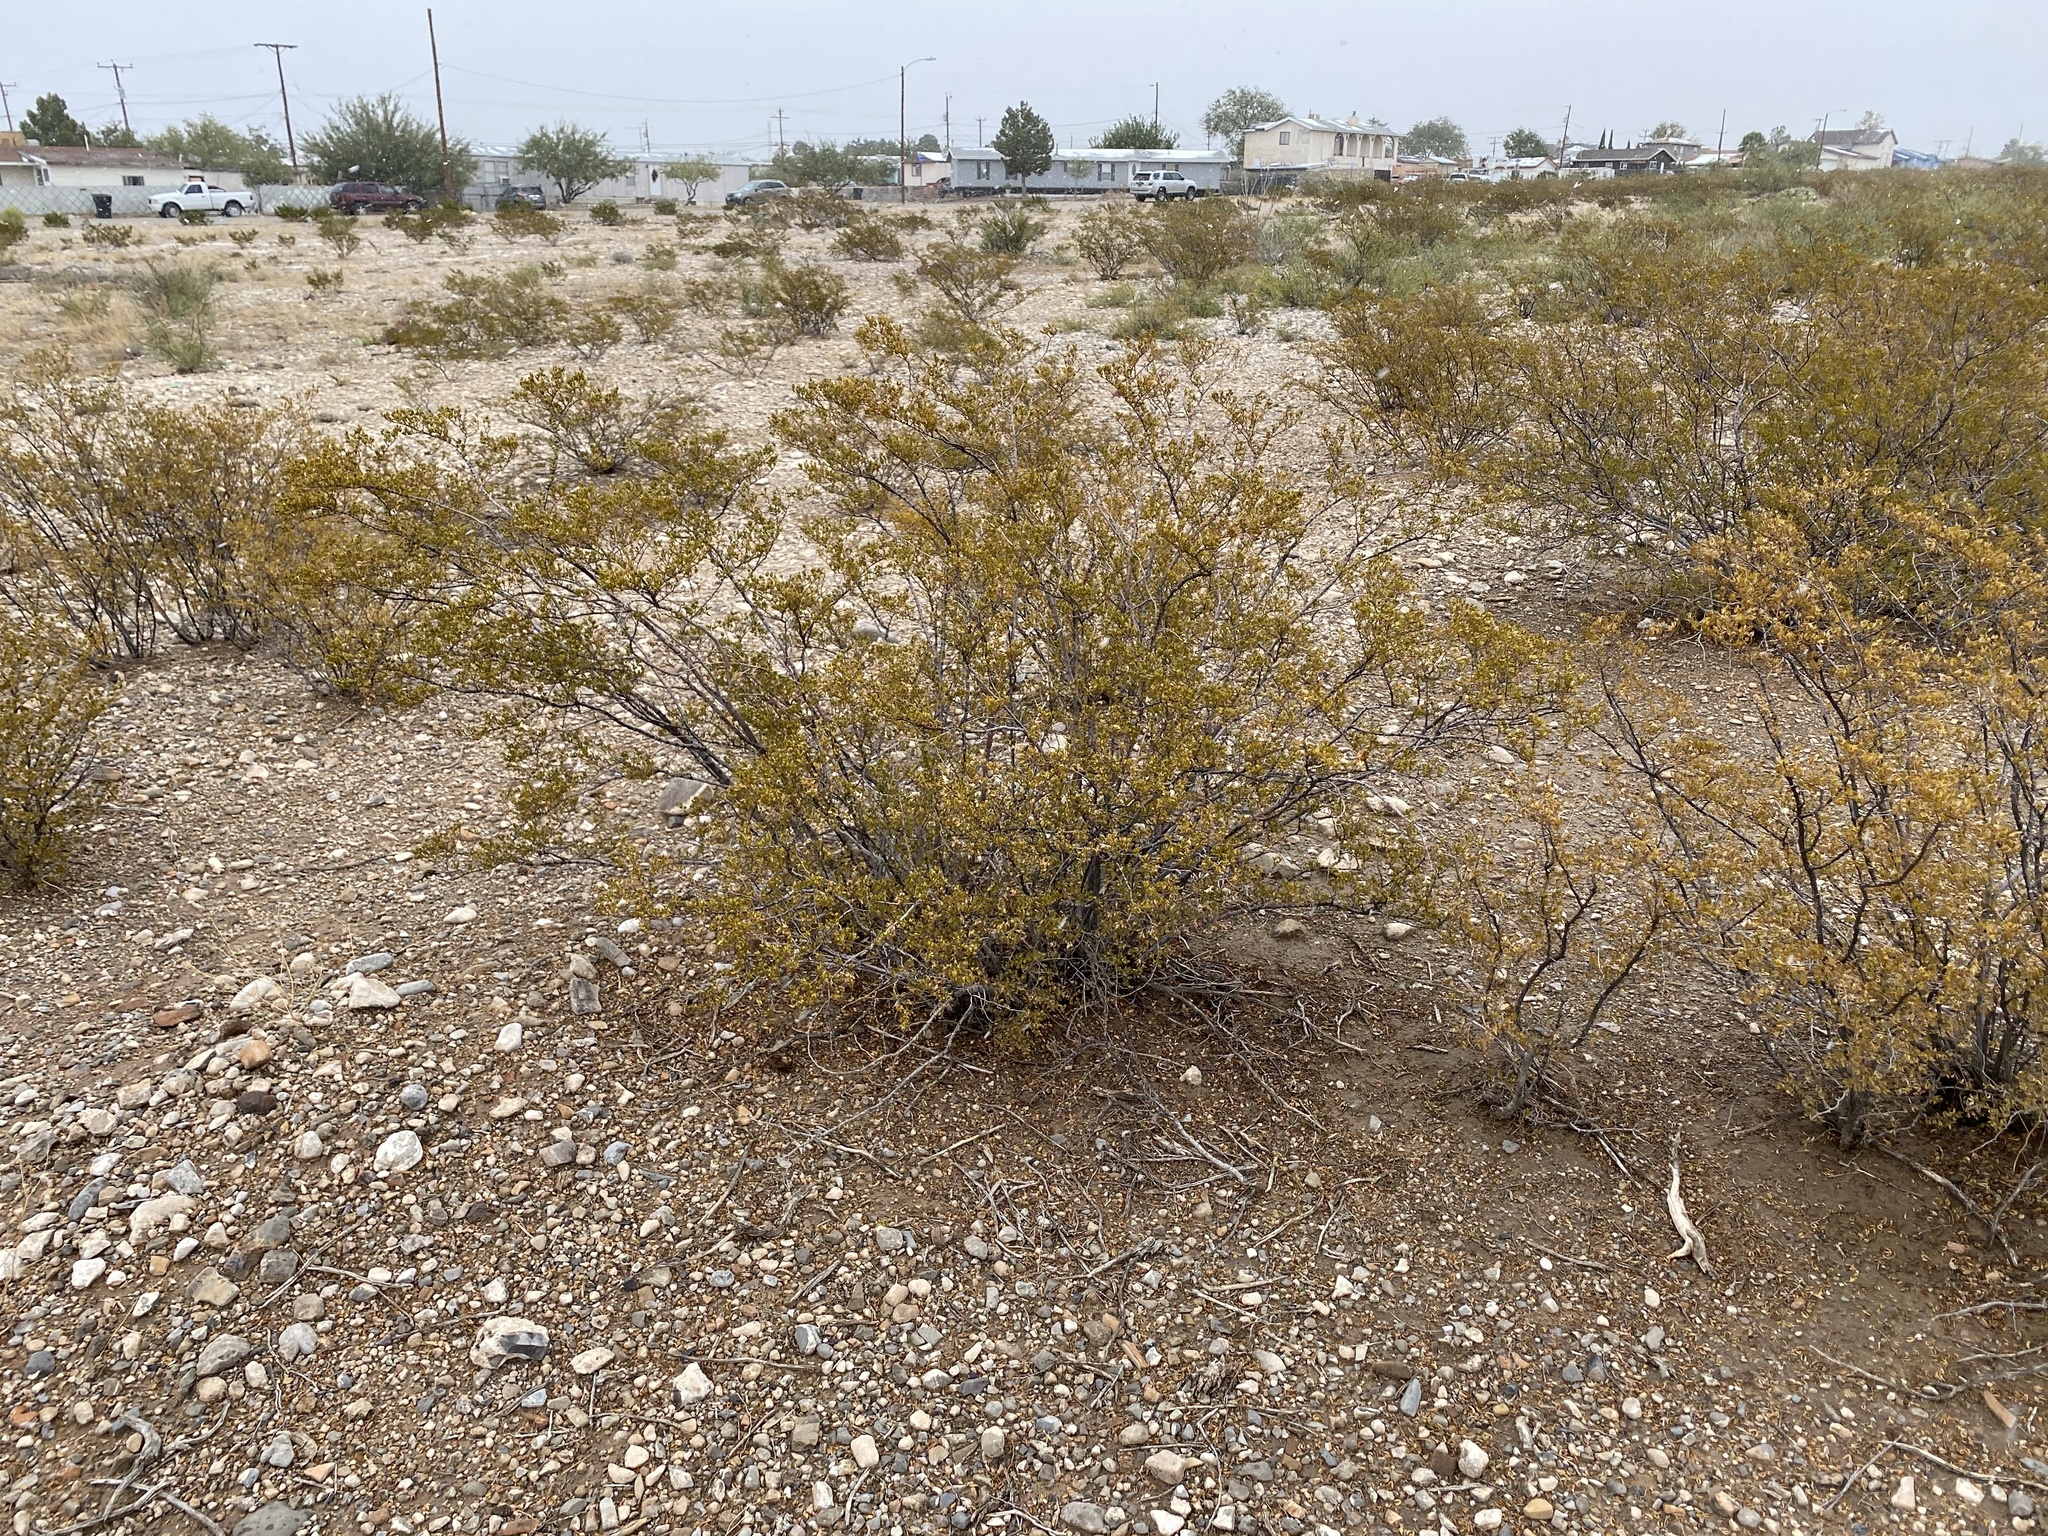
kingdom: Plantae
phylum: Tracheophyta
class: Magnoliopsida
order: Zygophyllales
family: Zygophyllaceae
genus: Larrea
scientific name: Larrea tridentata
